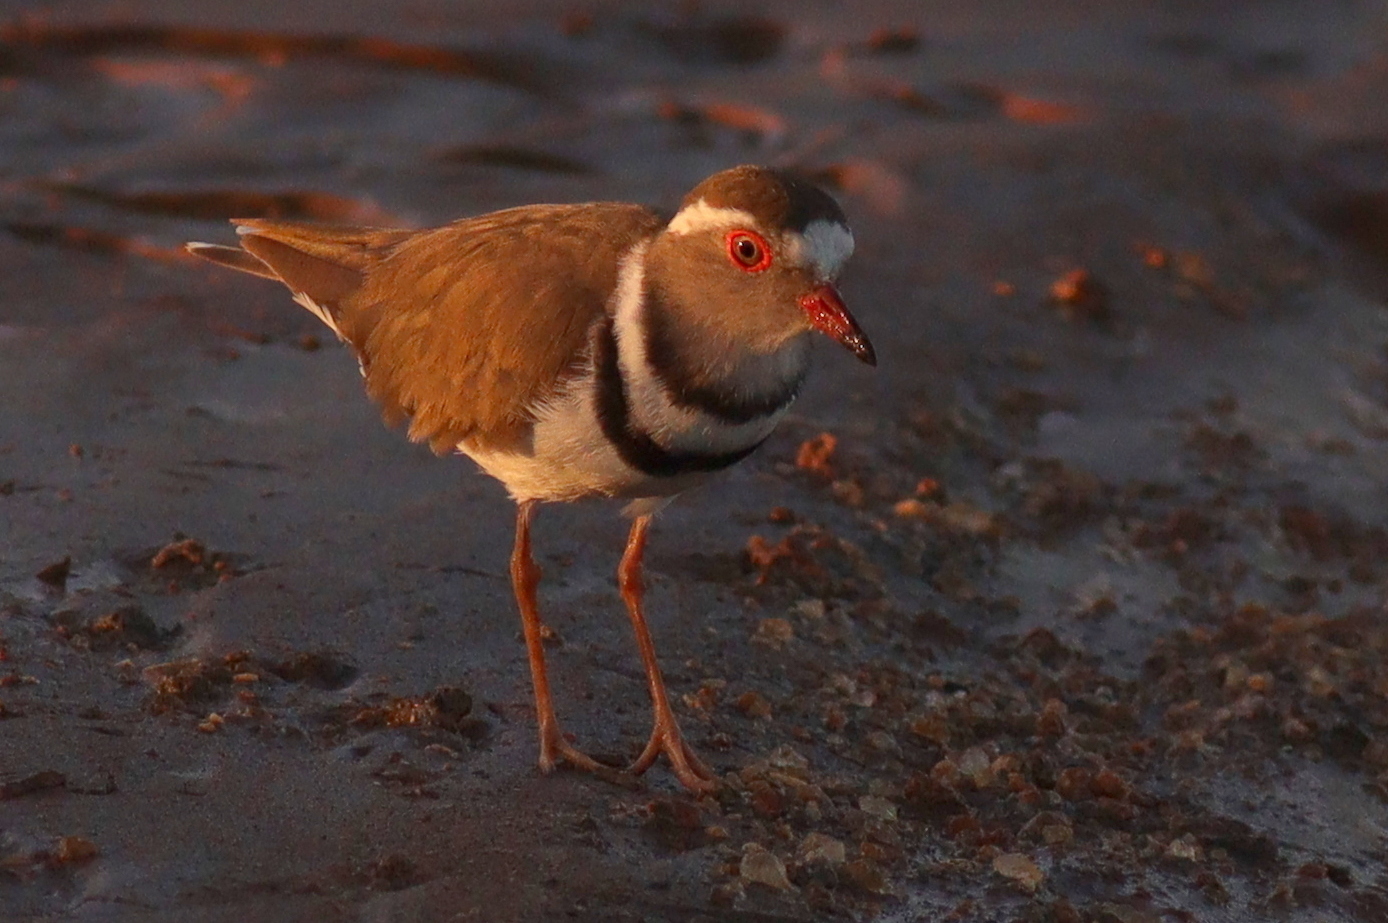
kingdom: Animalia
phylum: Chordata
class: Aves
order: Charadriiformes
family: Charadriidae
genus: Charadrius
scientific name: Charadrius tricollaris
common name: Three-banded plover
